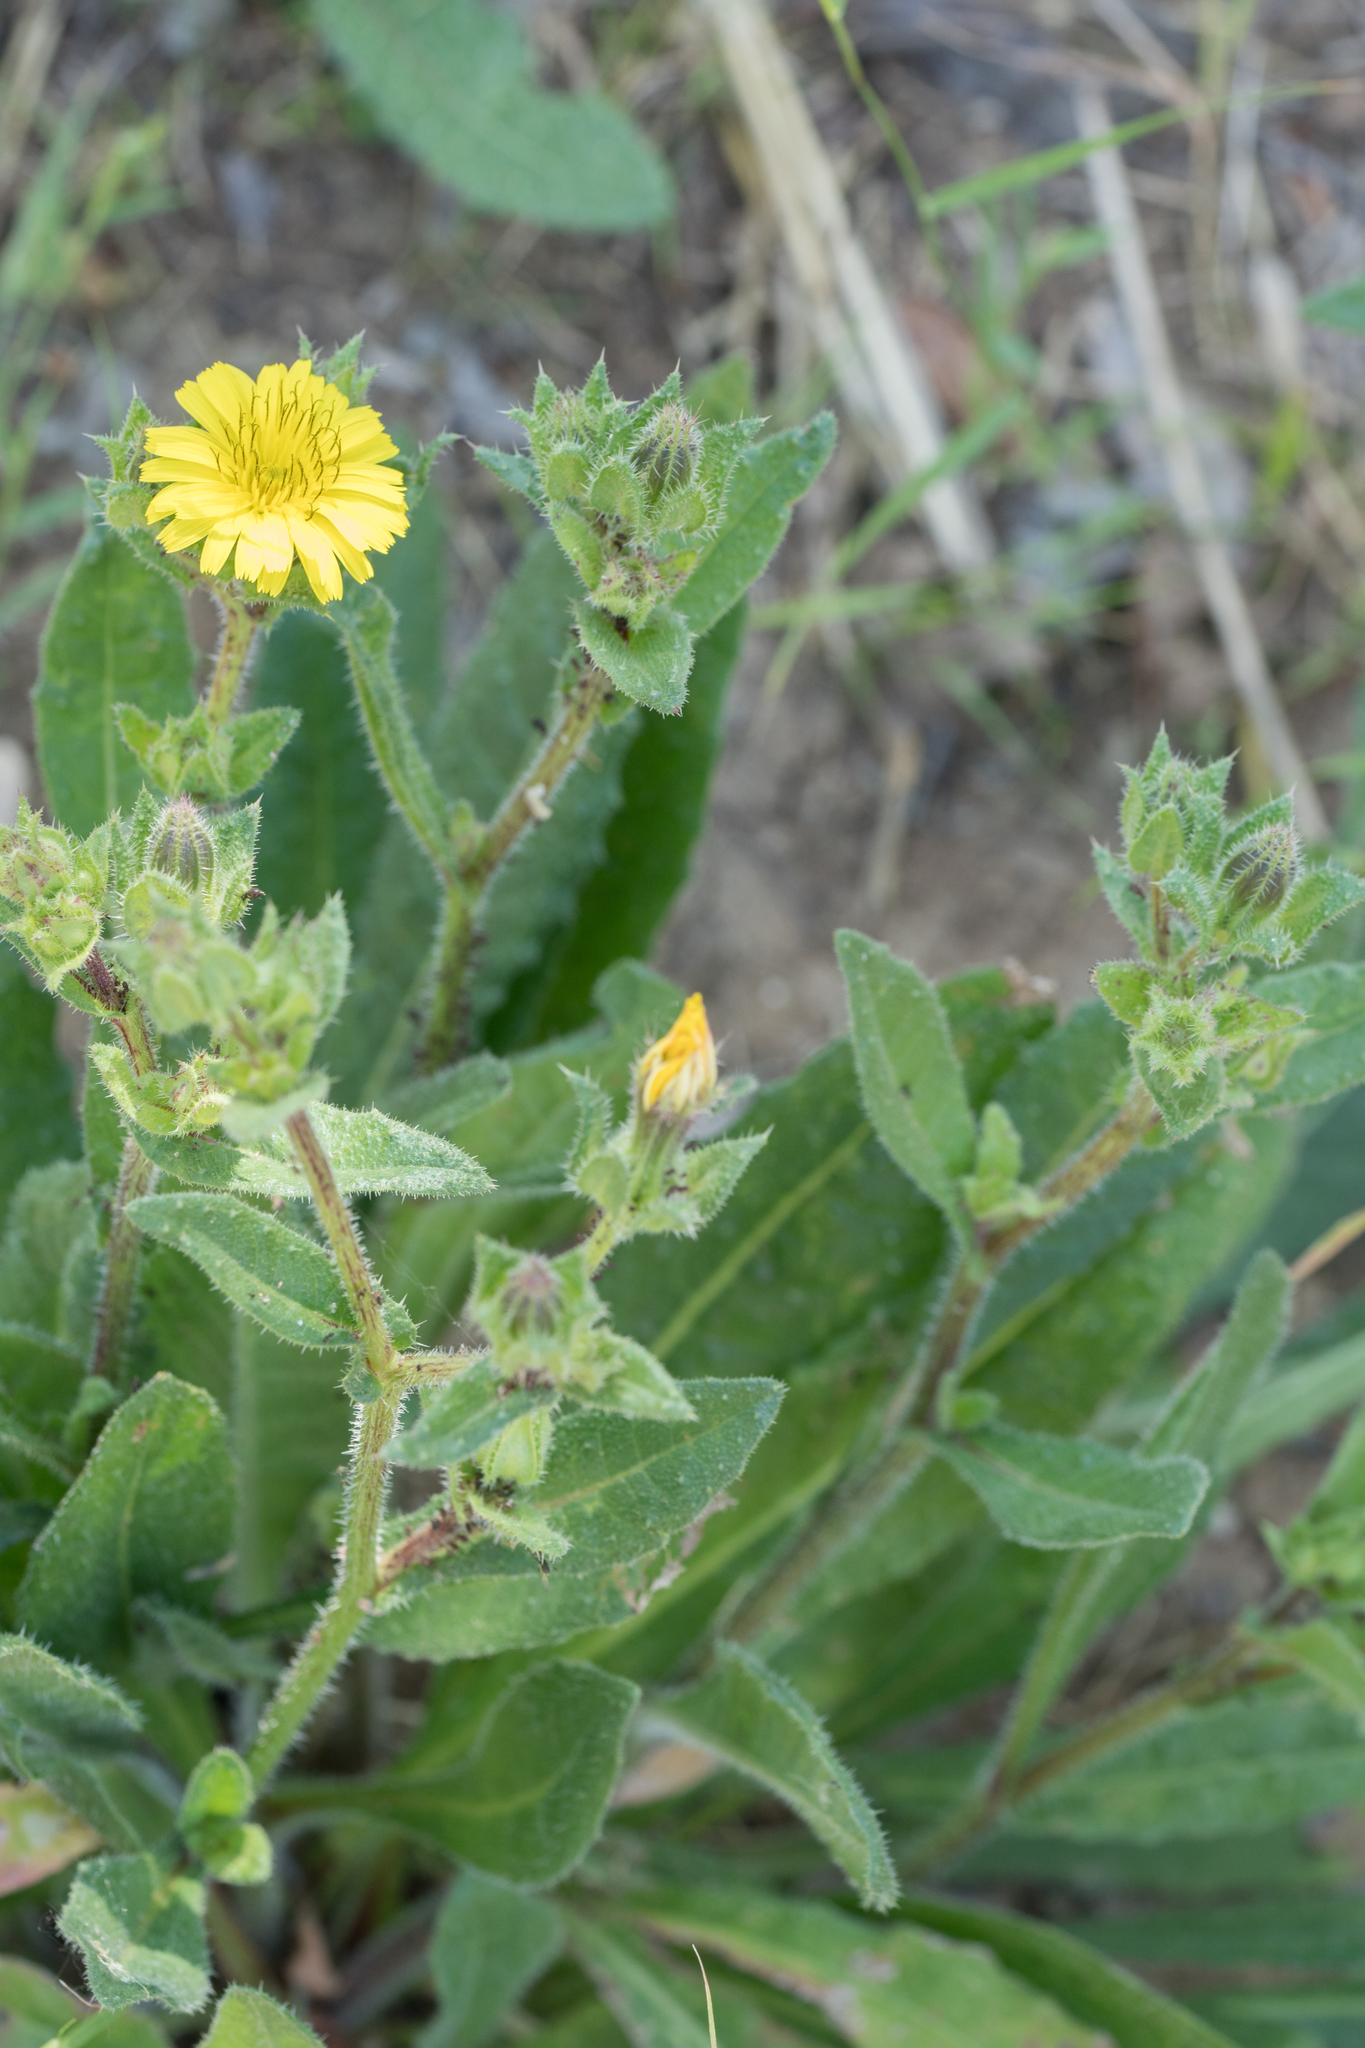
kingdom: Plantae
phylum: Tracheophyta
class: Magnoliopsida
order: Asterales
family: Asteraceae
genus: Helminthotheca
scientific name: Helminthotheca echioides
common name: Ox-tongue
